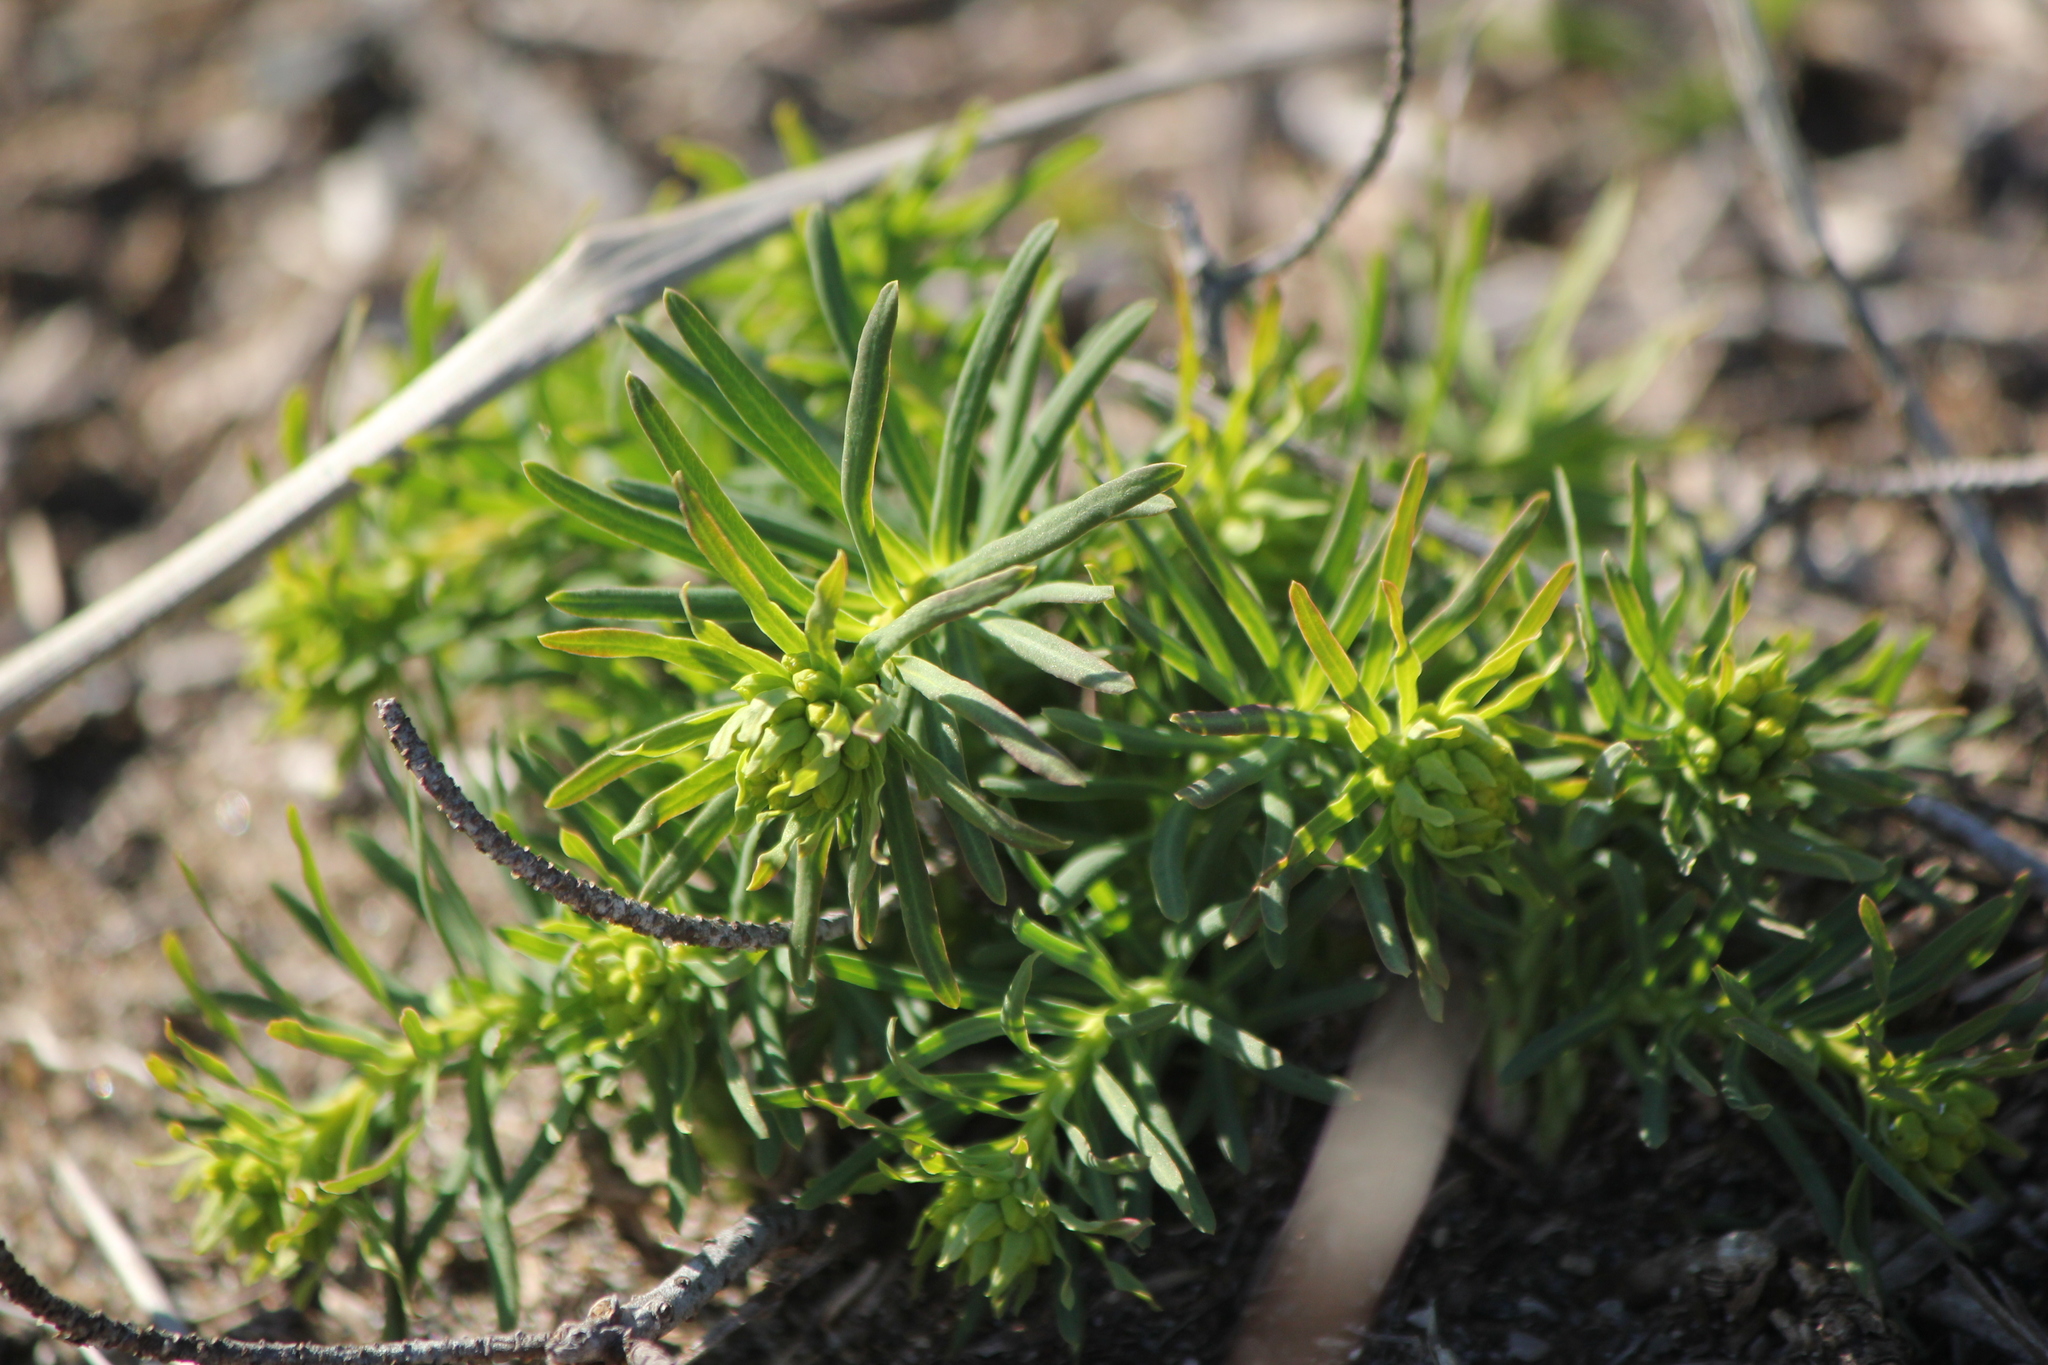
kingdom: Plantae
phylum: Tracheophyta
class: Magnoliopsida
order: Malpighiales
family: Euphorbiaceae
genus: Euphorbia
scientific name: Euphorbia cyparissias
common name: Cypress spurge
